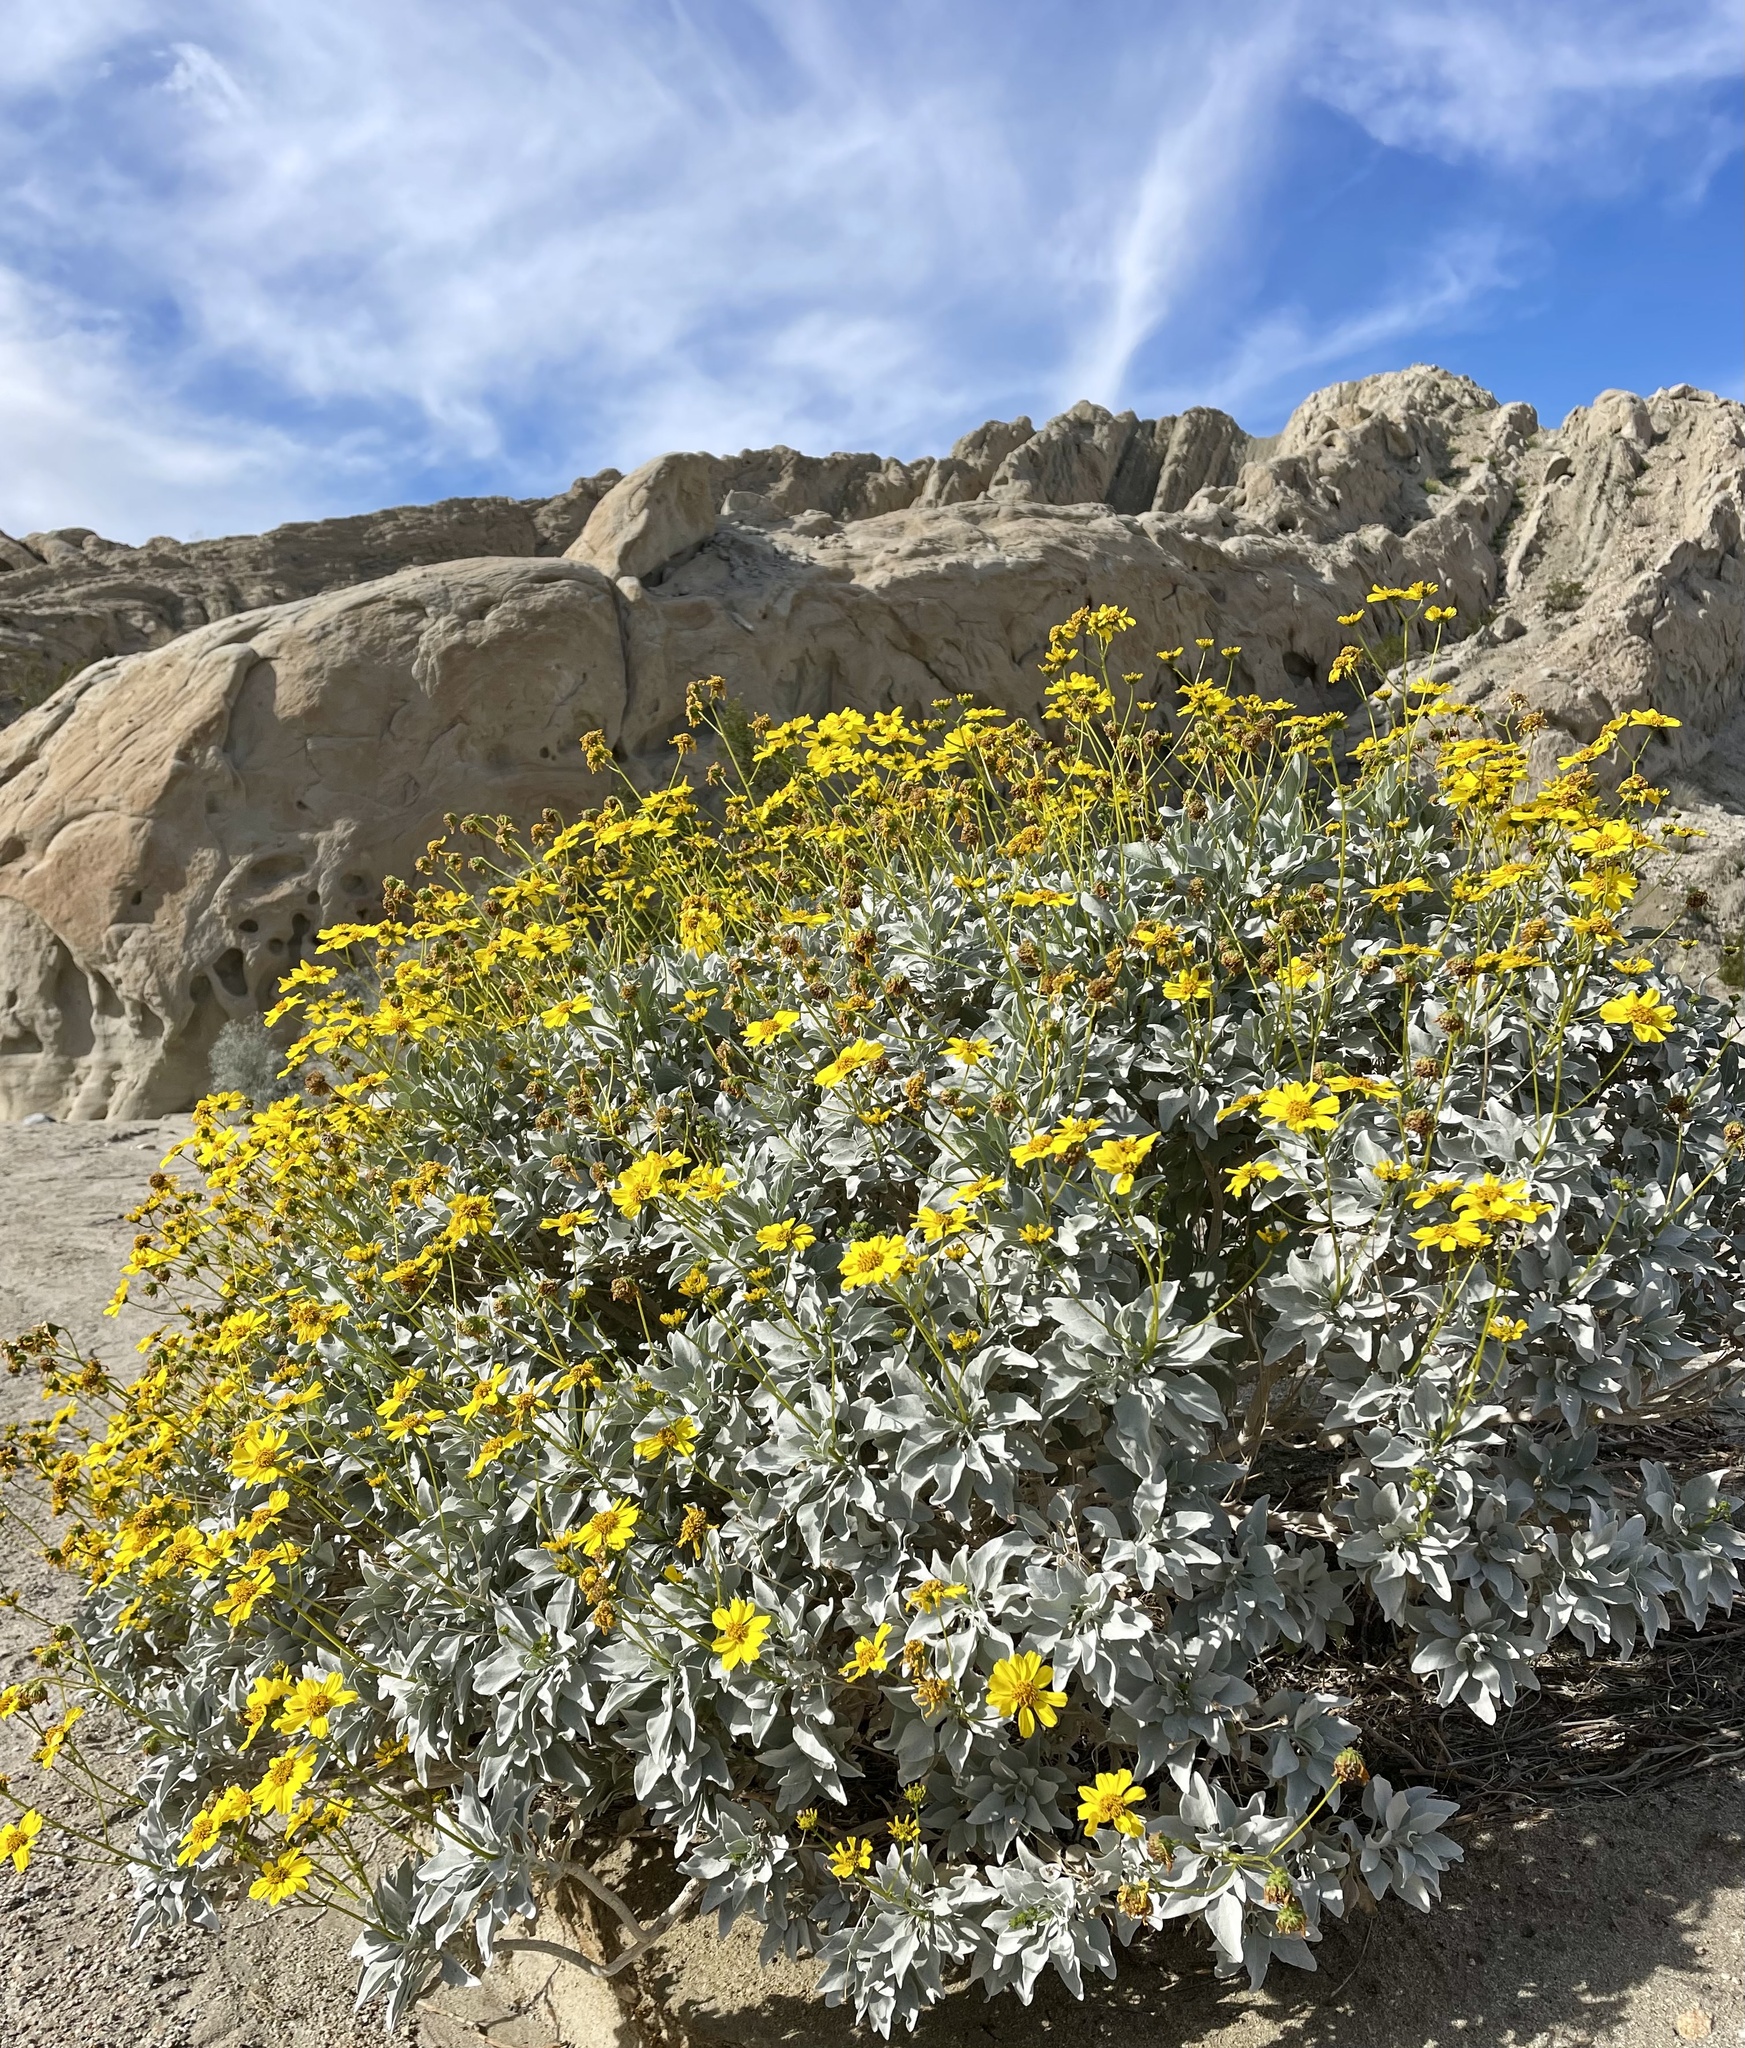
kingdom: Plantae
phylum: Tracheophyta
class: Magnoliopsida
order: Asterales
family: Asteraceae
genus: Encelia
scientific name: Encelia farinosa
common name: Brittlebush
